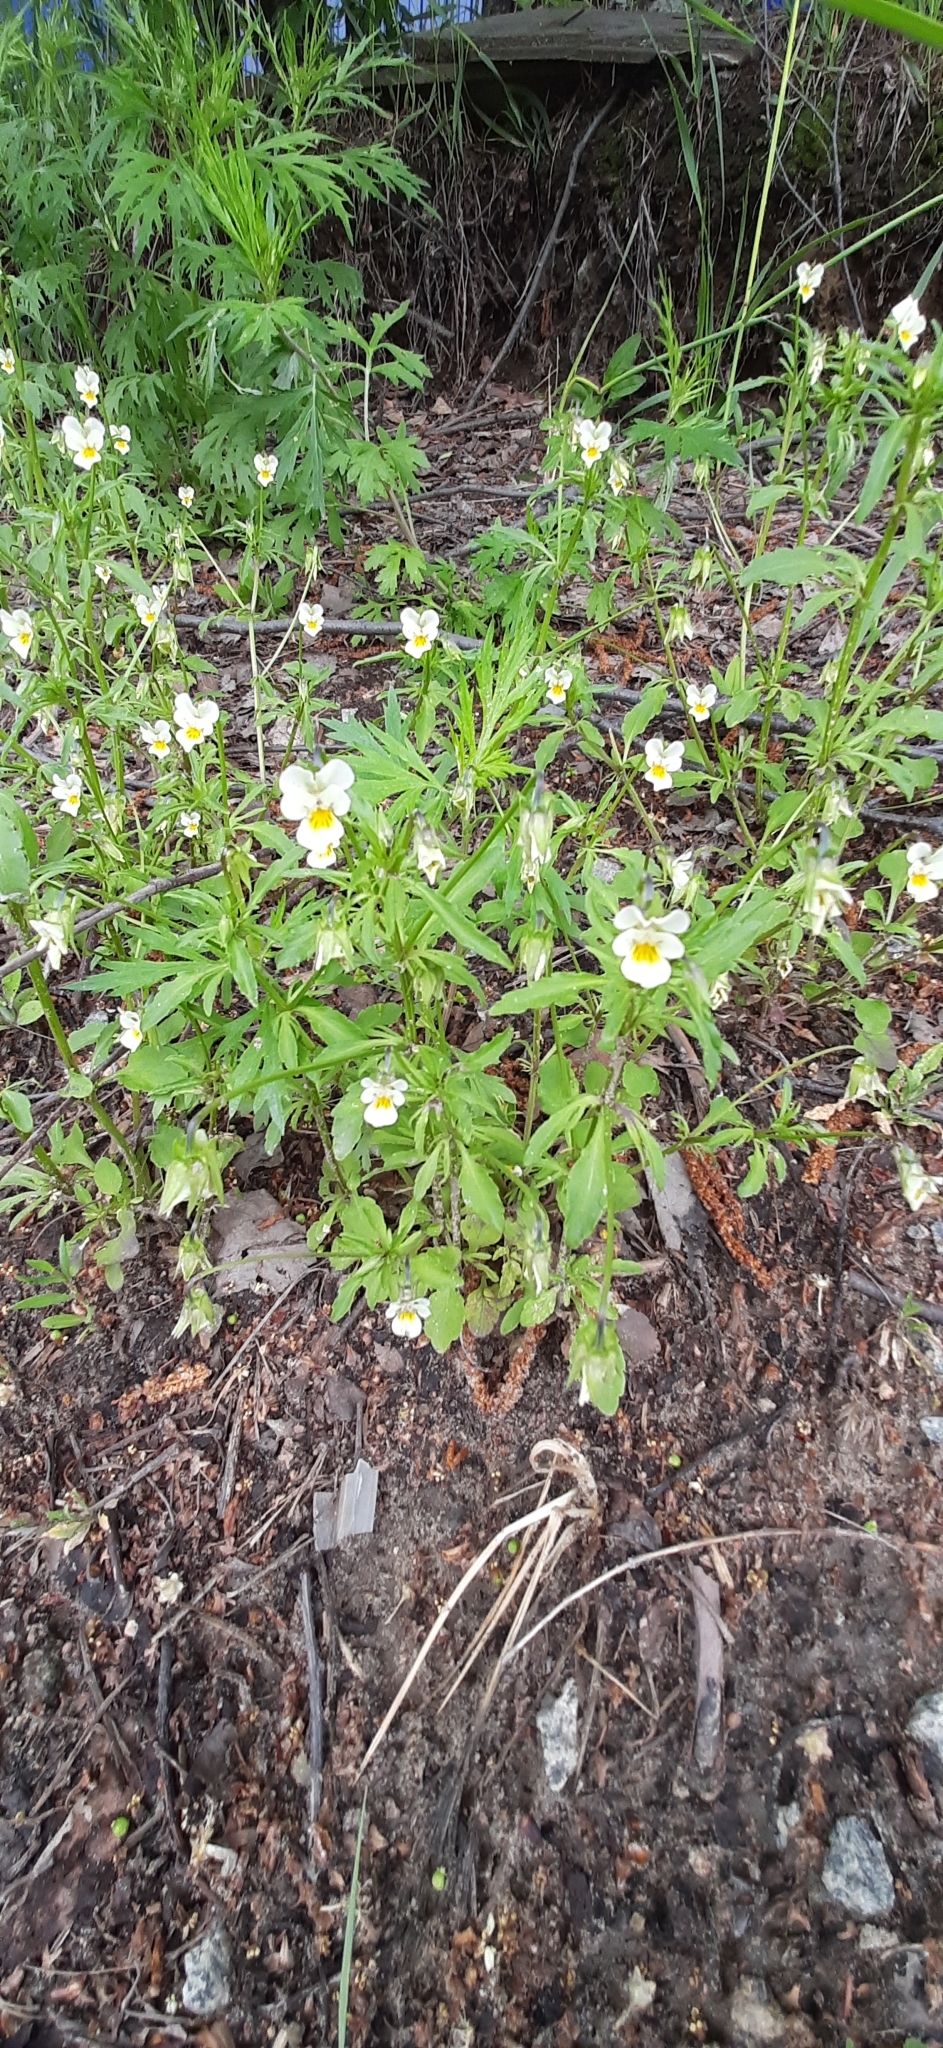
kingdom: Plantae
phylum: Tracheophyta
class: Magnoliopsida
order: Malpighiales
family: Violaceae
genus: Viola
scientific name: Viola arvensis
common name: Field pansy
